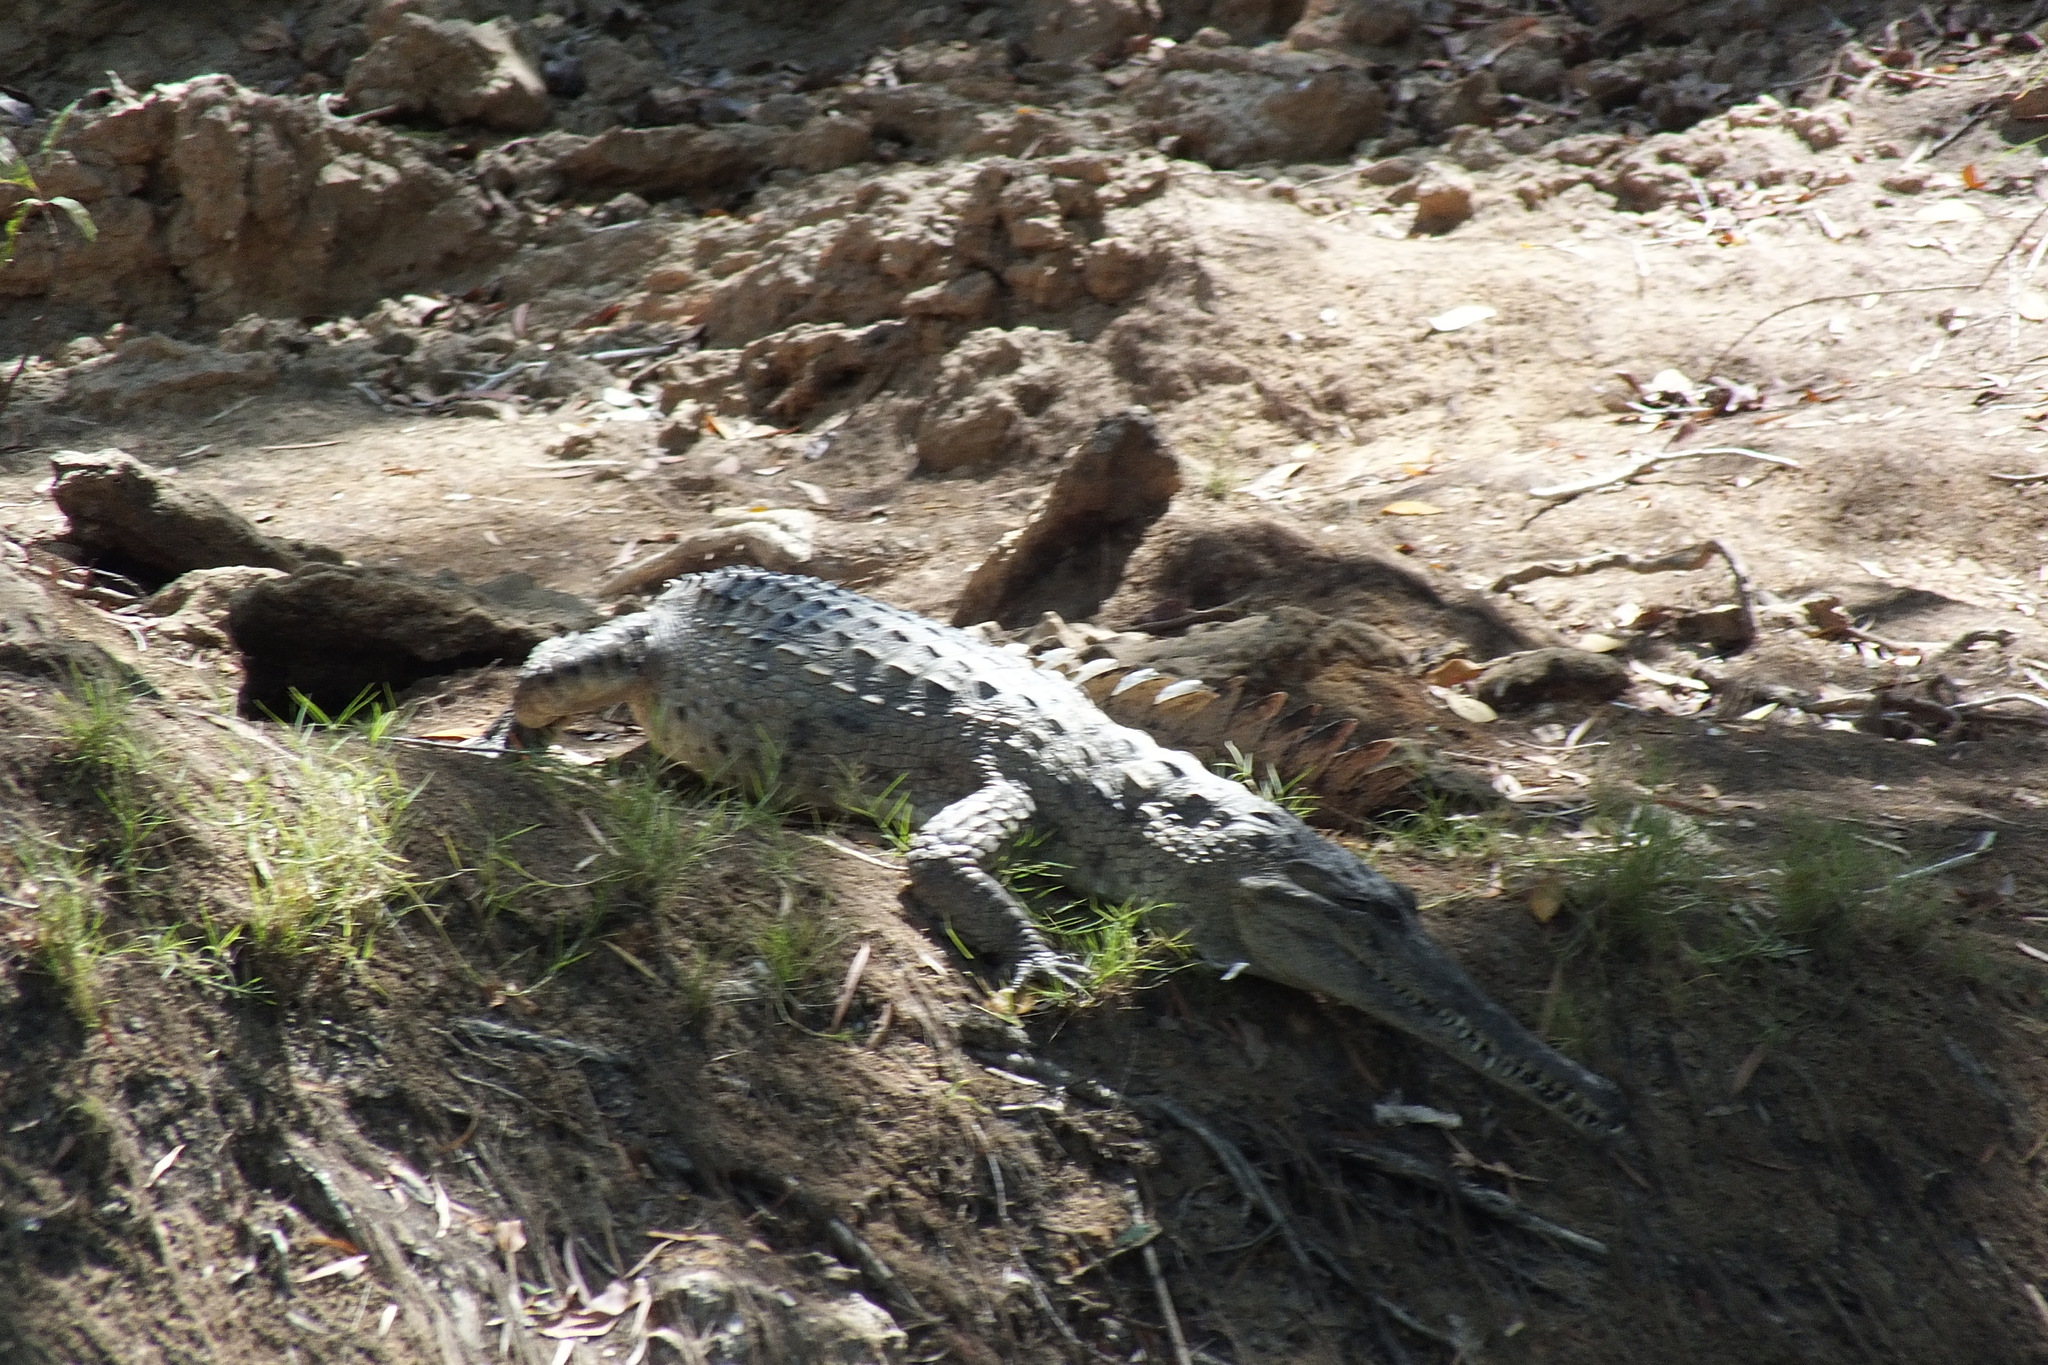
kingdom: Animalia
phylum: Chordata
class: Crocodylia
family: Crocodylidae
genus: Crocodylus
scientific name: Crocodylus johnsoni
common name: Freshwater crocodile
